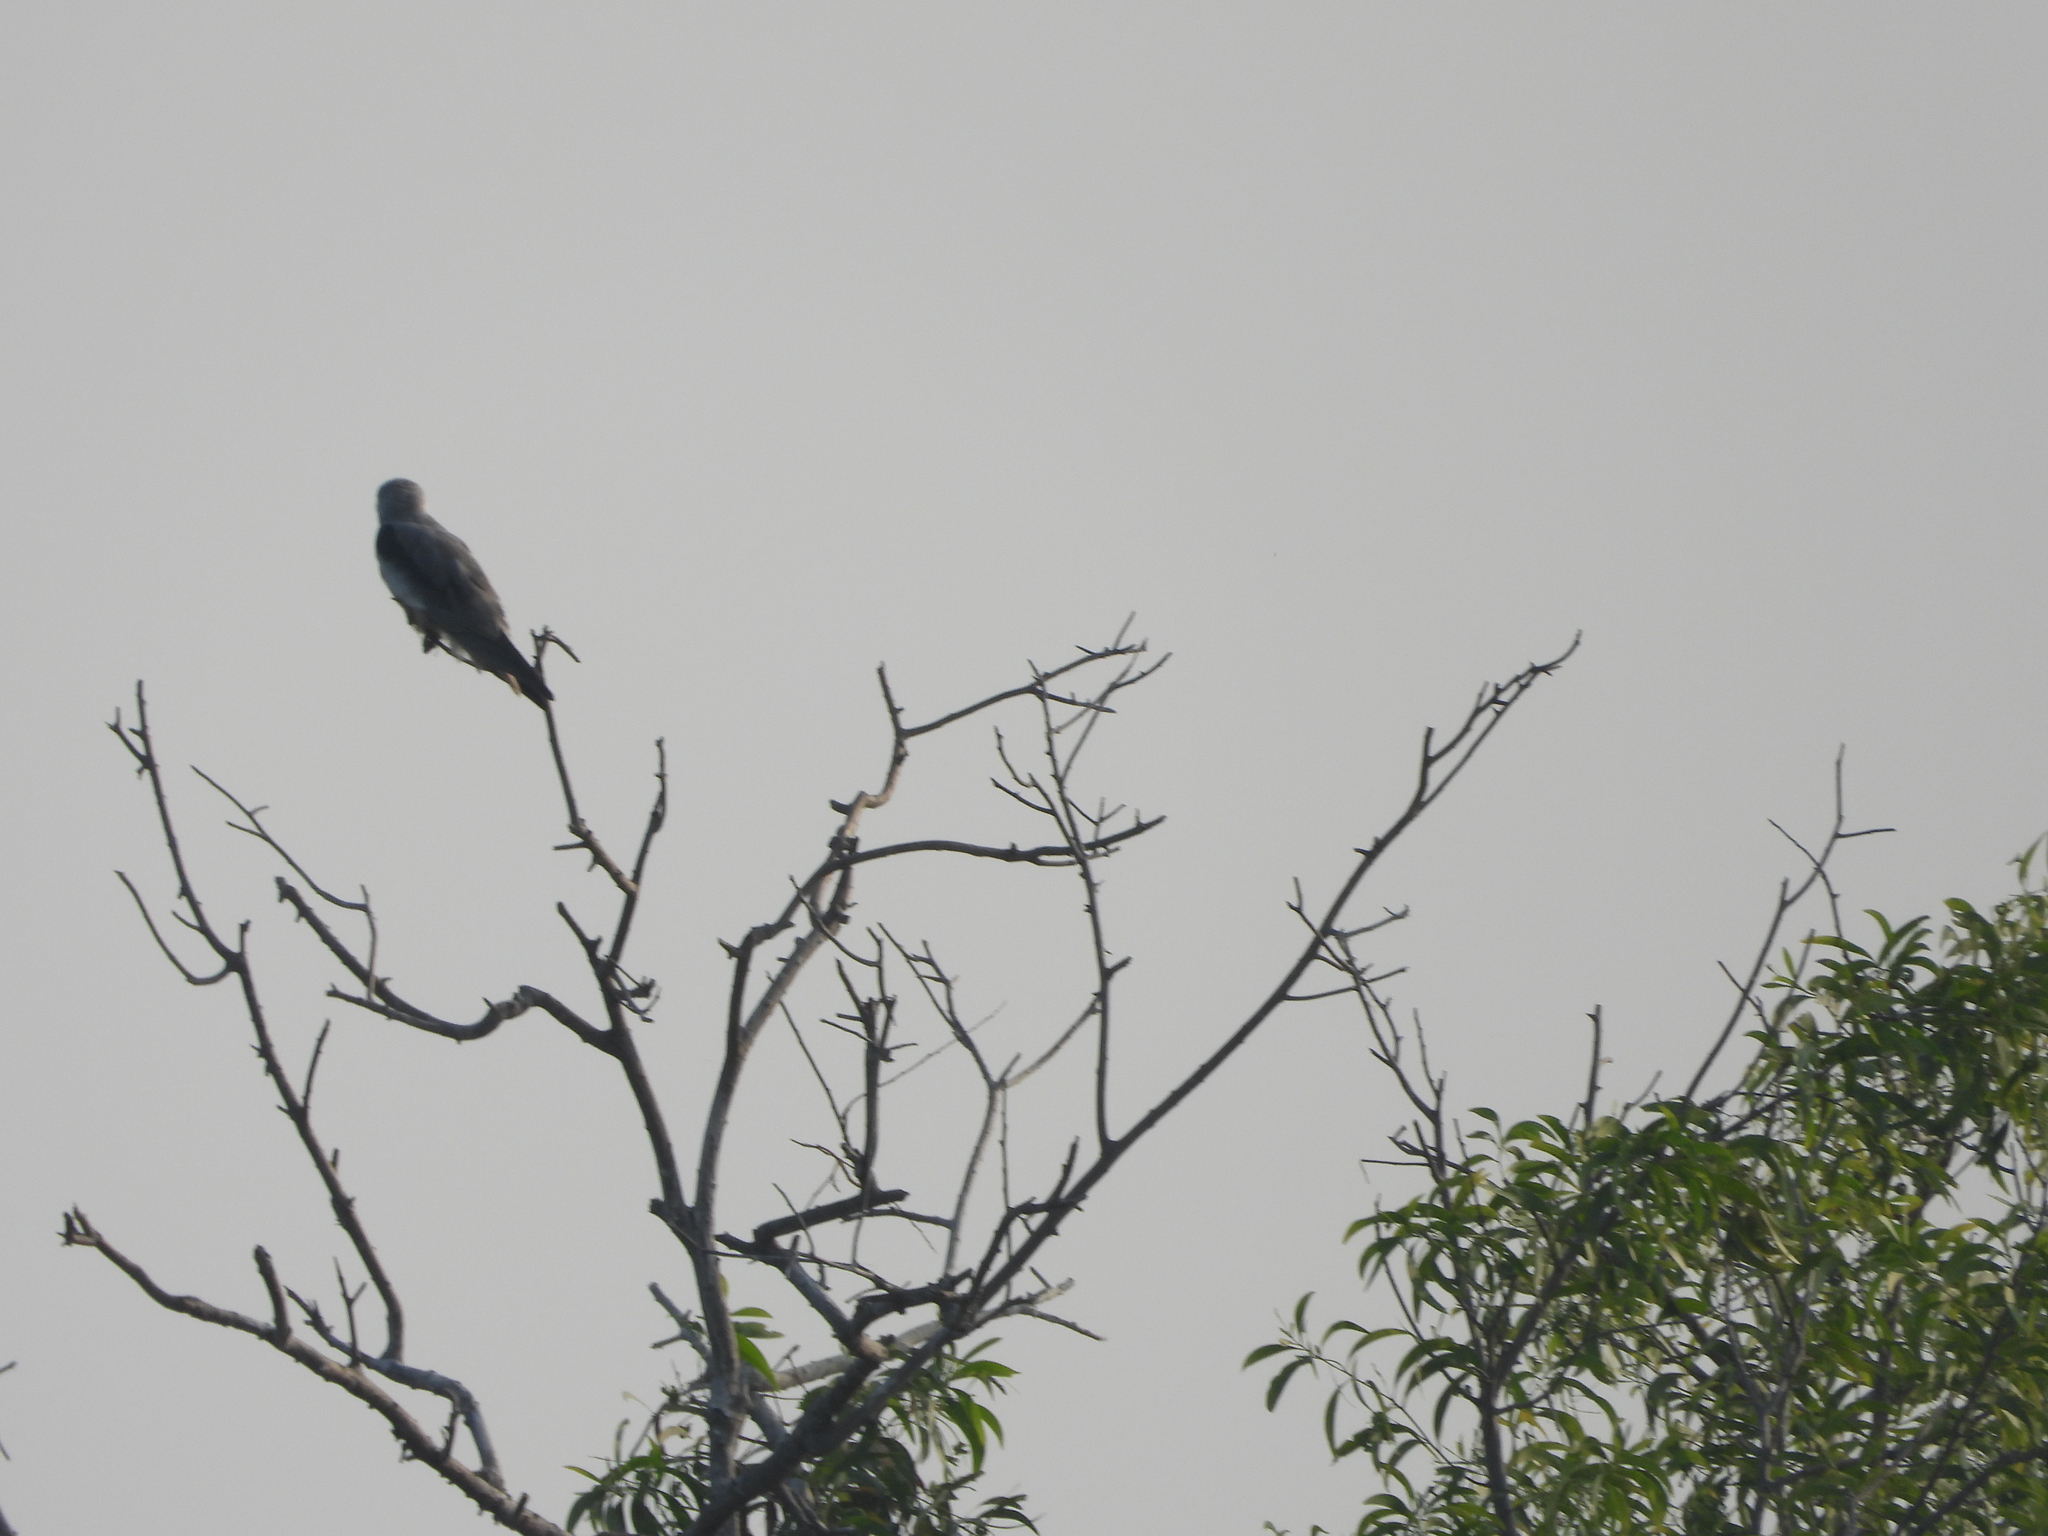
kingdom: Animalia
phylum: Chordata
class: Aves
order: Accipitriformes
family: Accipitridae
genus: Elanus
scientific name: Elanus caeruleus
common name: Black-winged kite
